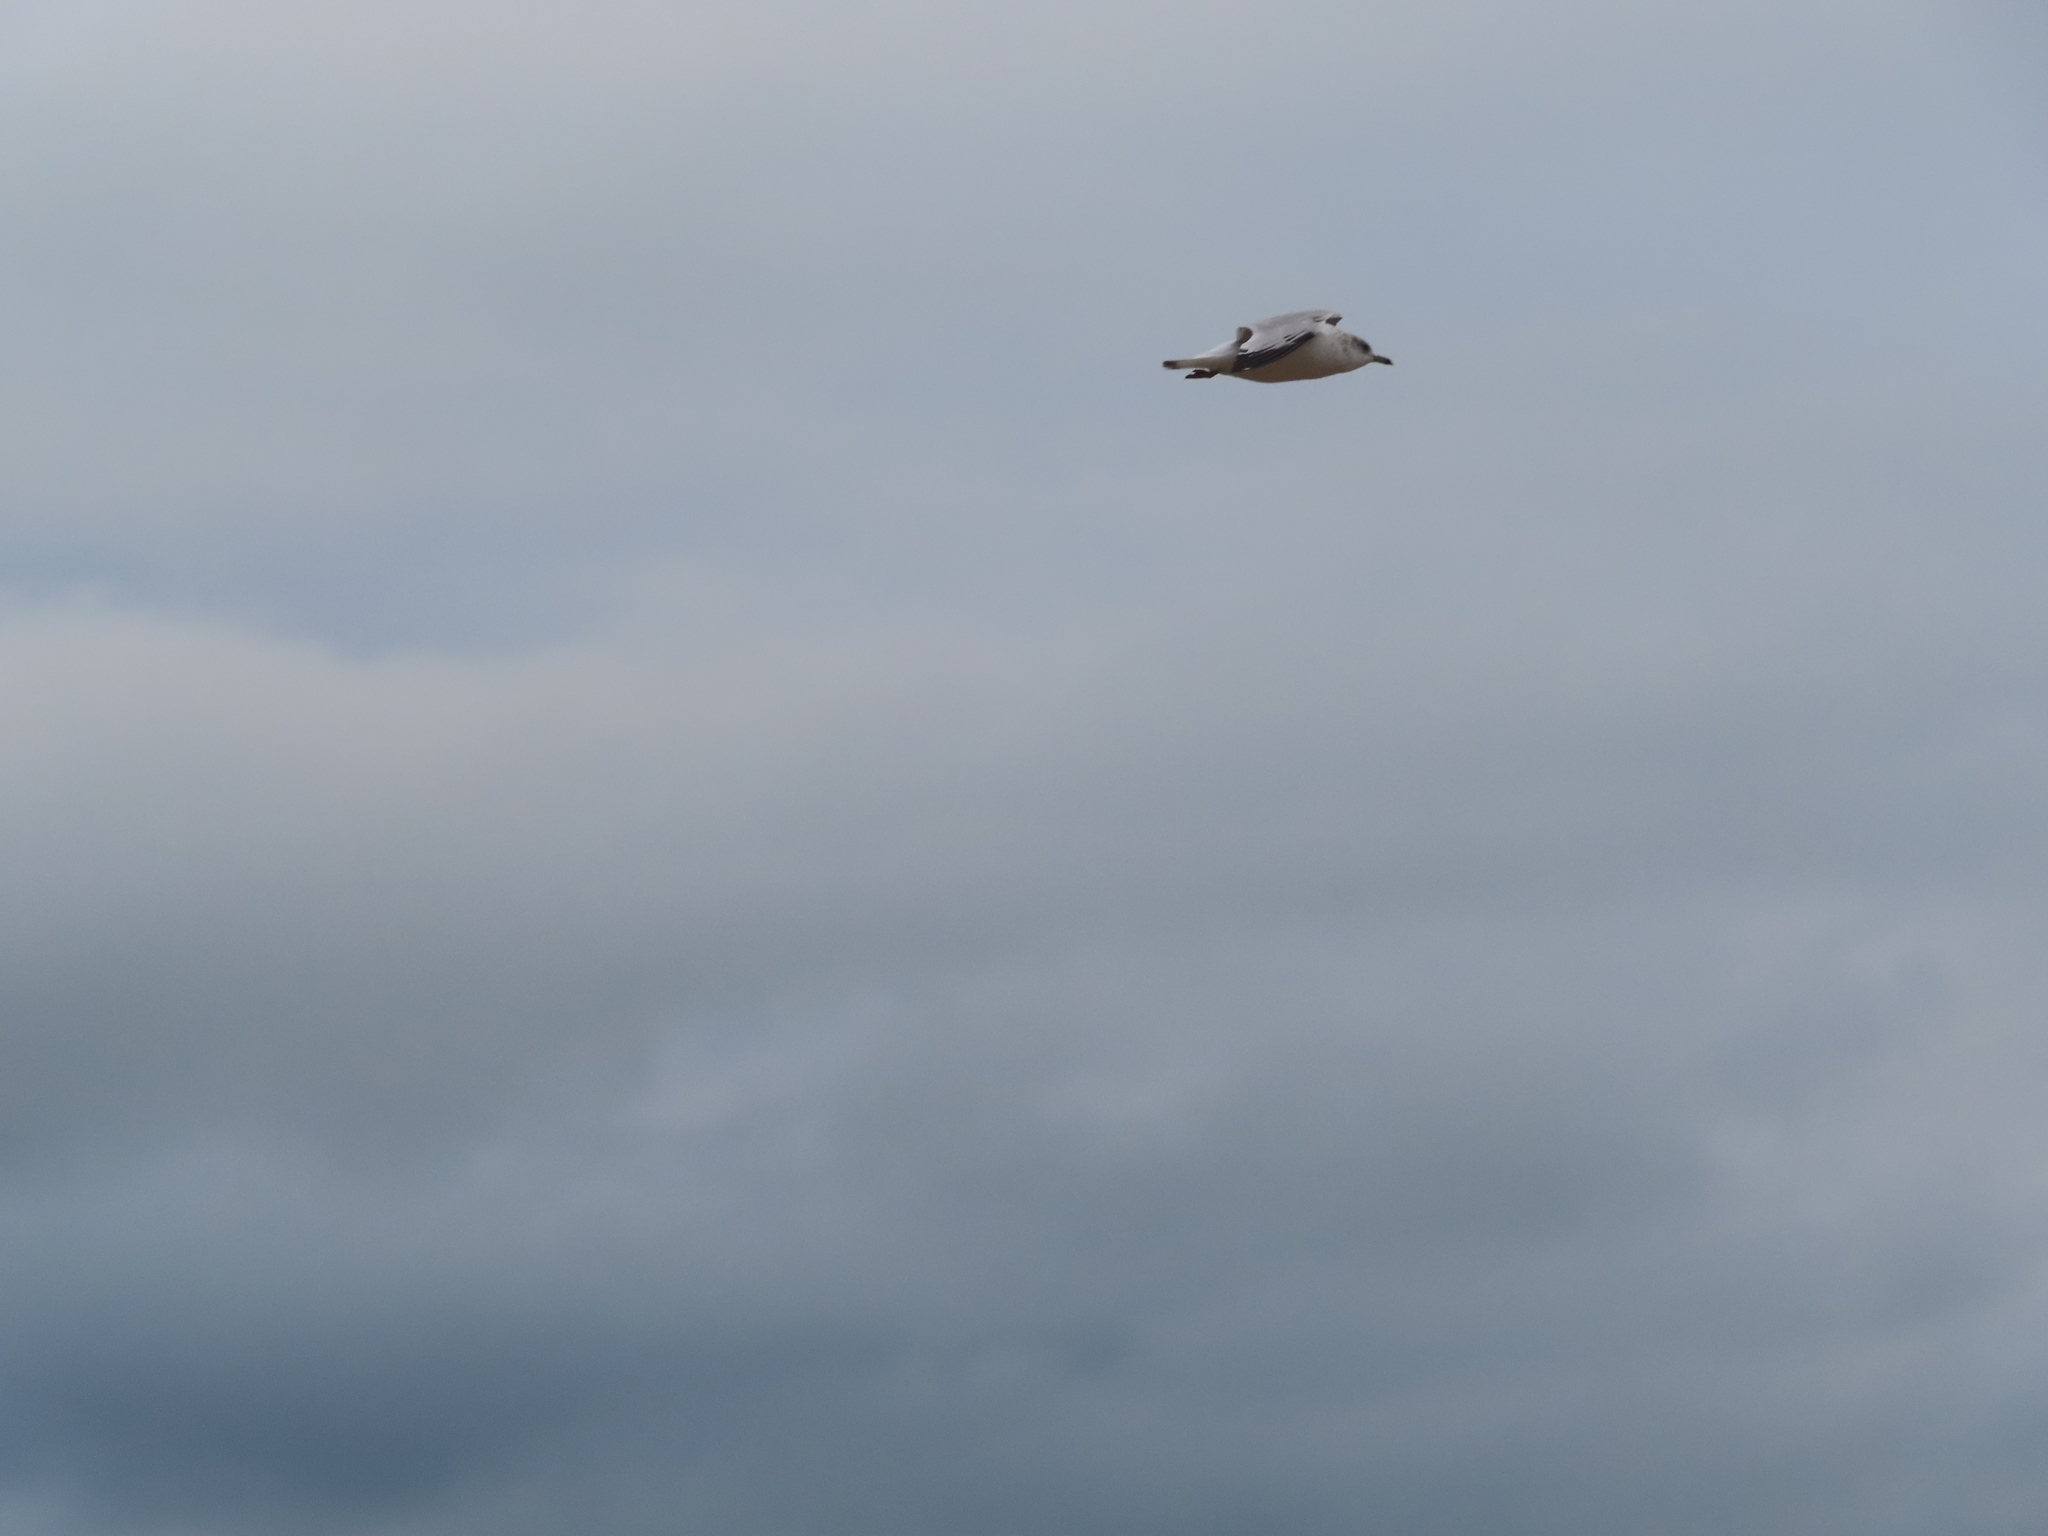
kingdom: Animalia
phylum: Chordata
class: Aves
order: Charadriiformes
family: Laridae
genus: Larus
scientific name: Larus delawarensis
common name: Ring-billed gull
